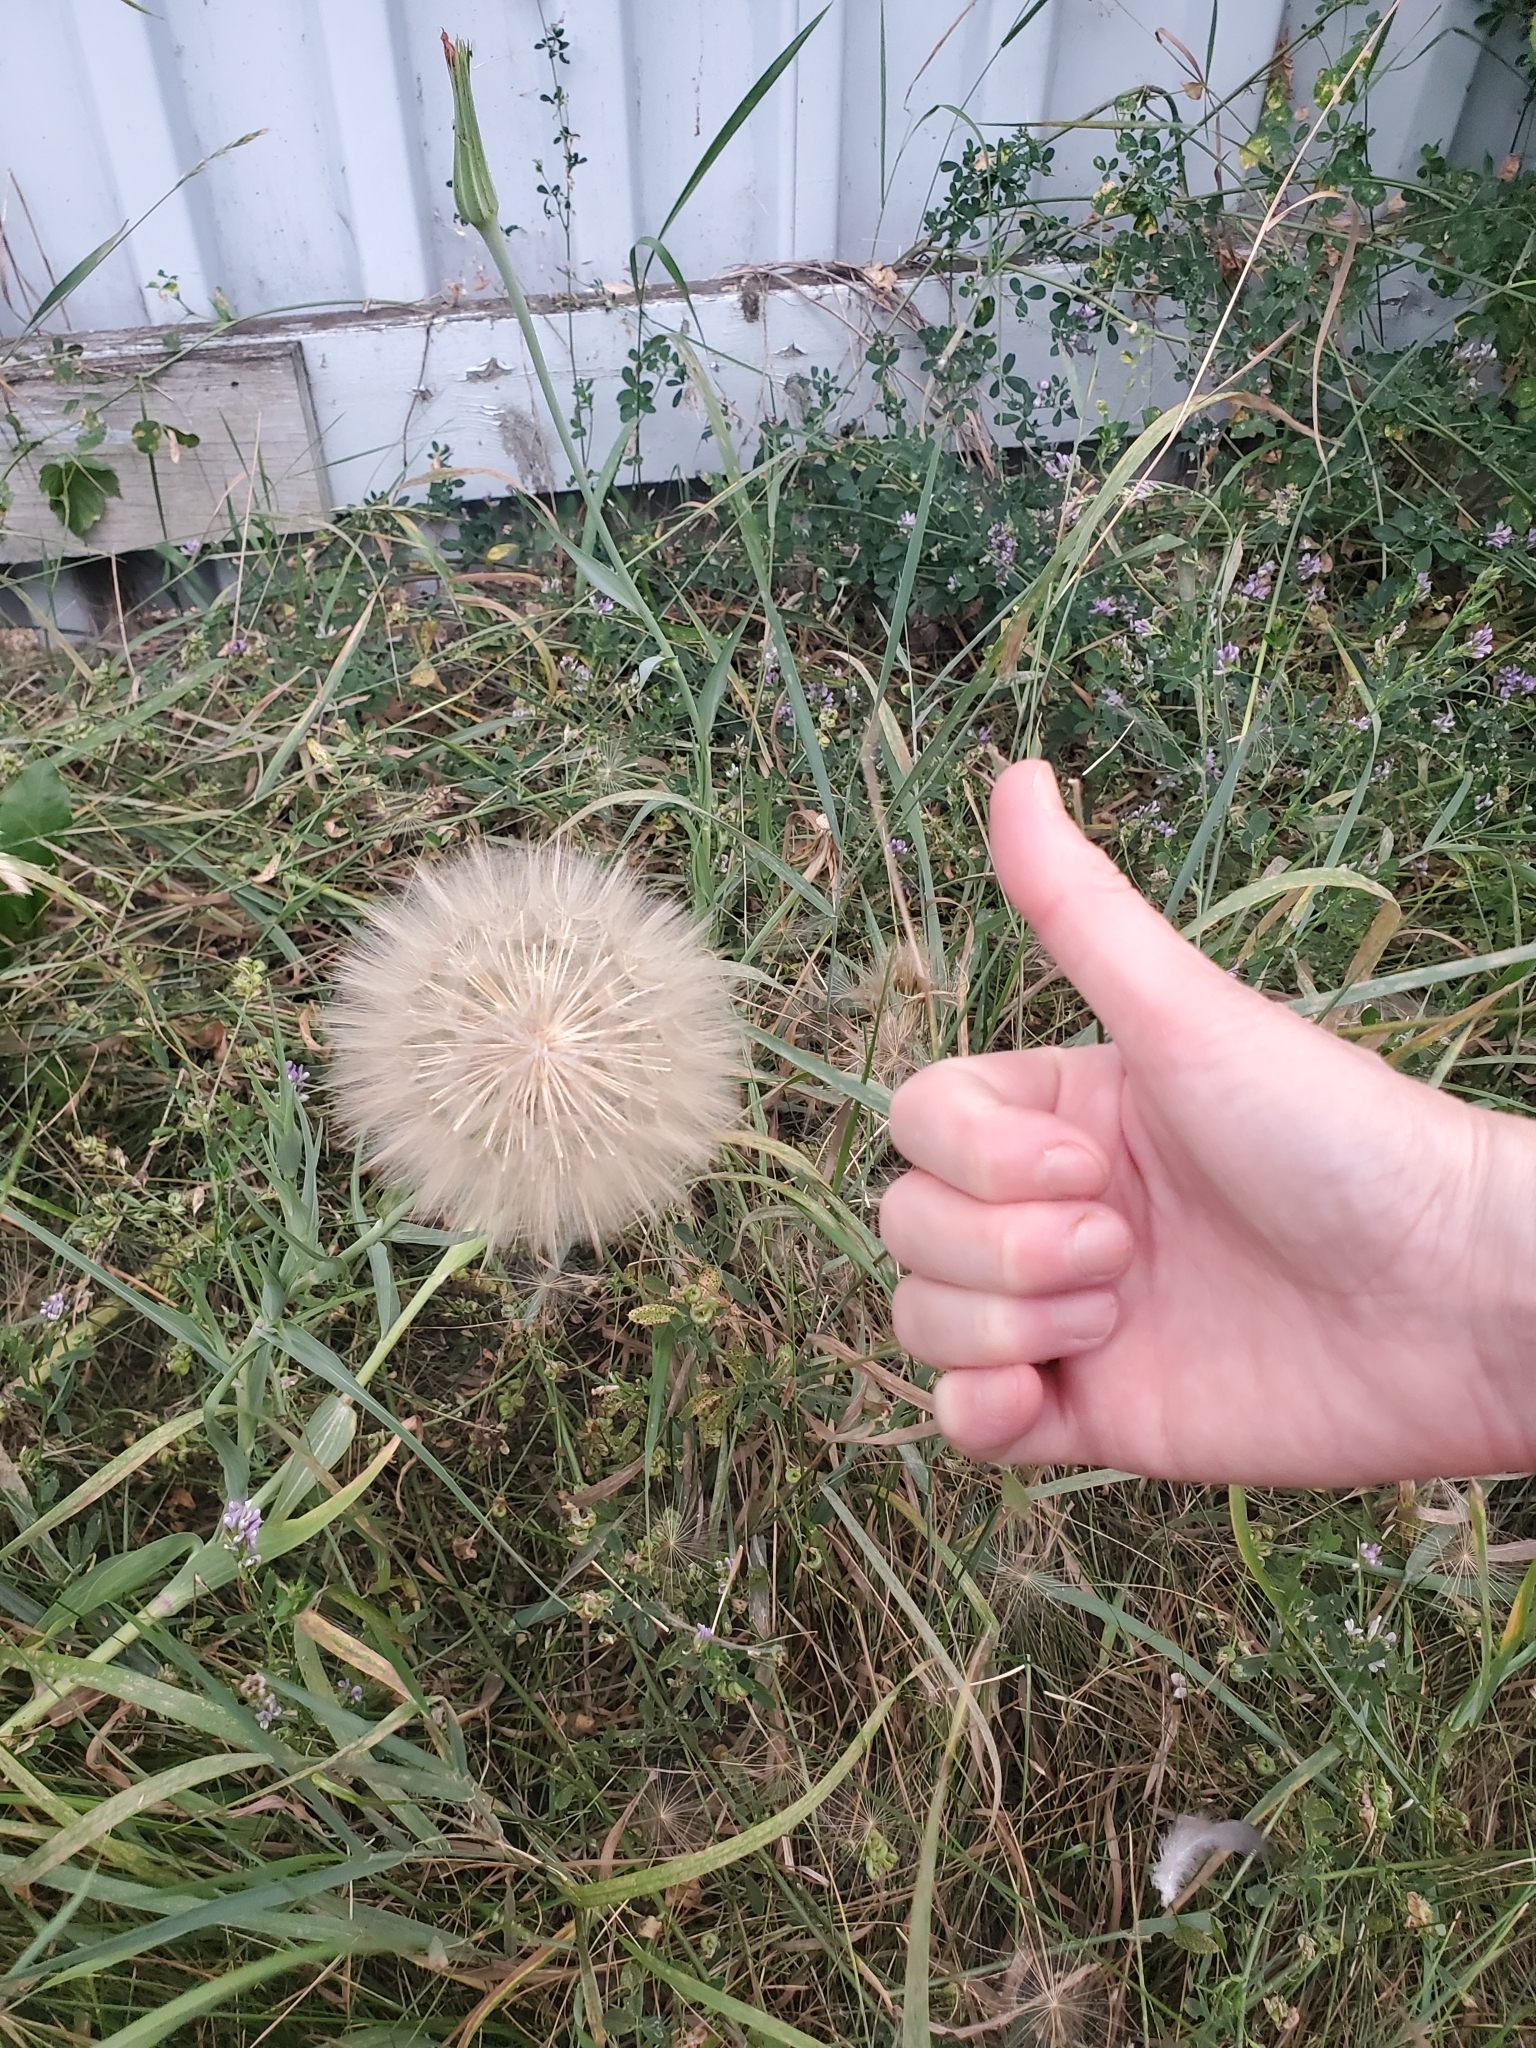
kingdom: Plantae
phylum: Tracheophyta
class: Magnoliopsida
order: Asterales
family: Asteraceae
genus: Tragopogon
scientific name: Tragopogon dubius
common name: Yellow salsify
